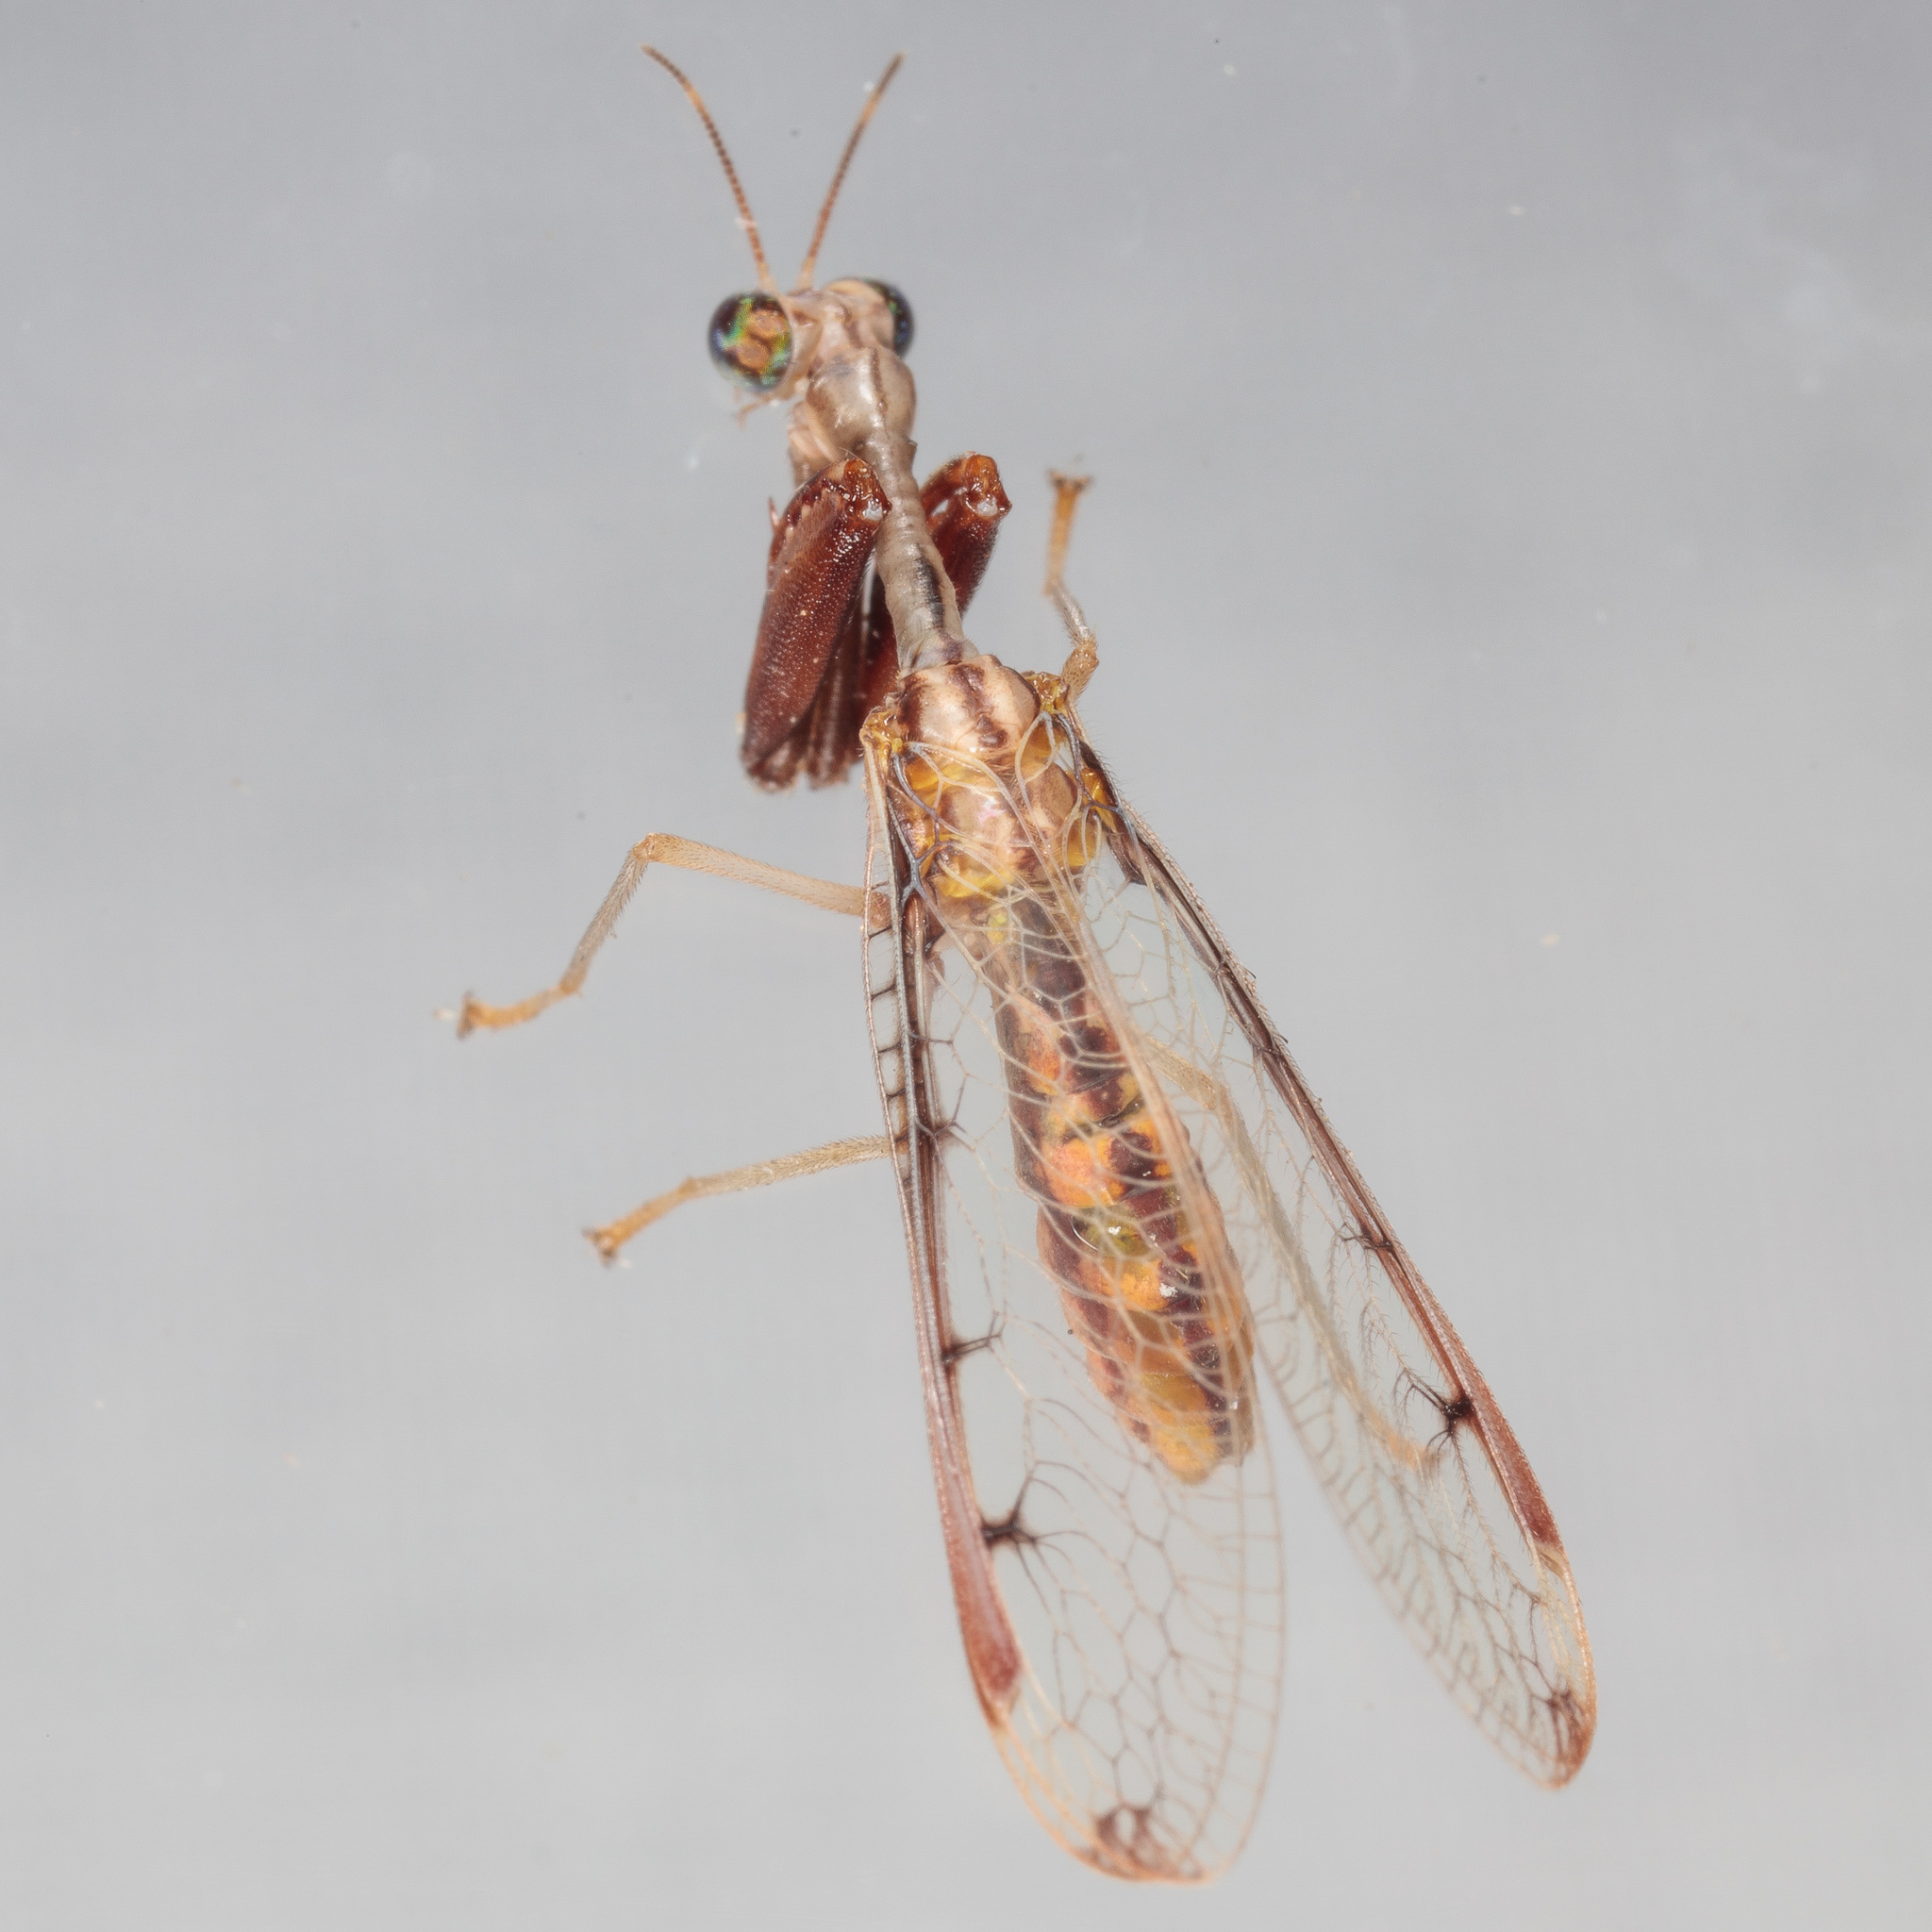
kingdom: Animalia
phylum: Arthropoda
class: Insecta
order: Neuroptera
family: Mantispidae
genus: Dicromantispa
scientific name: Dicromantispa interrupta
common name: Four-spotted mantidfly
